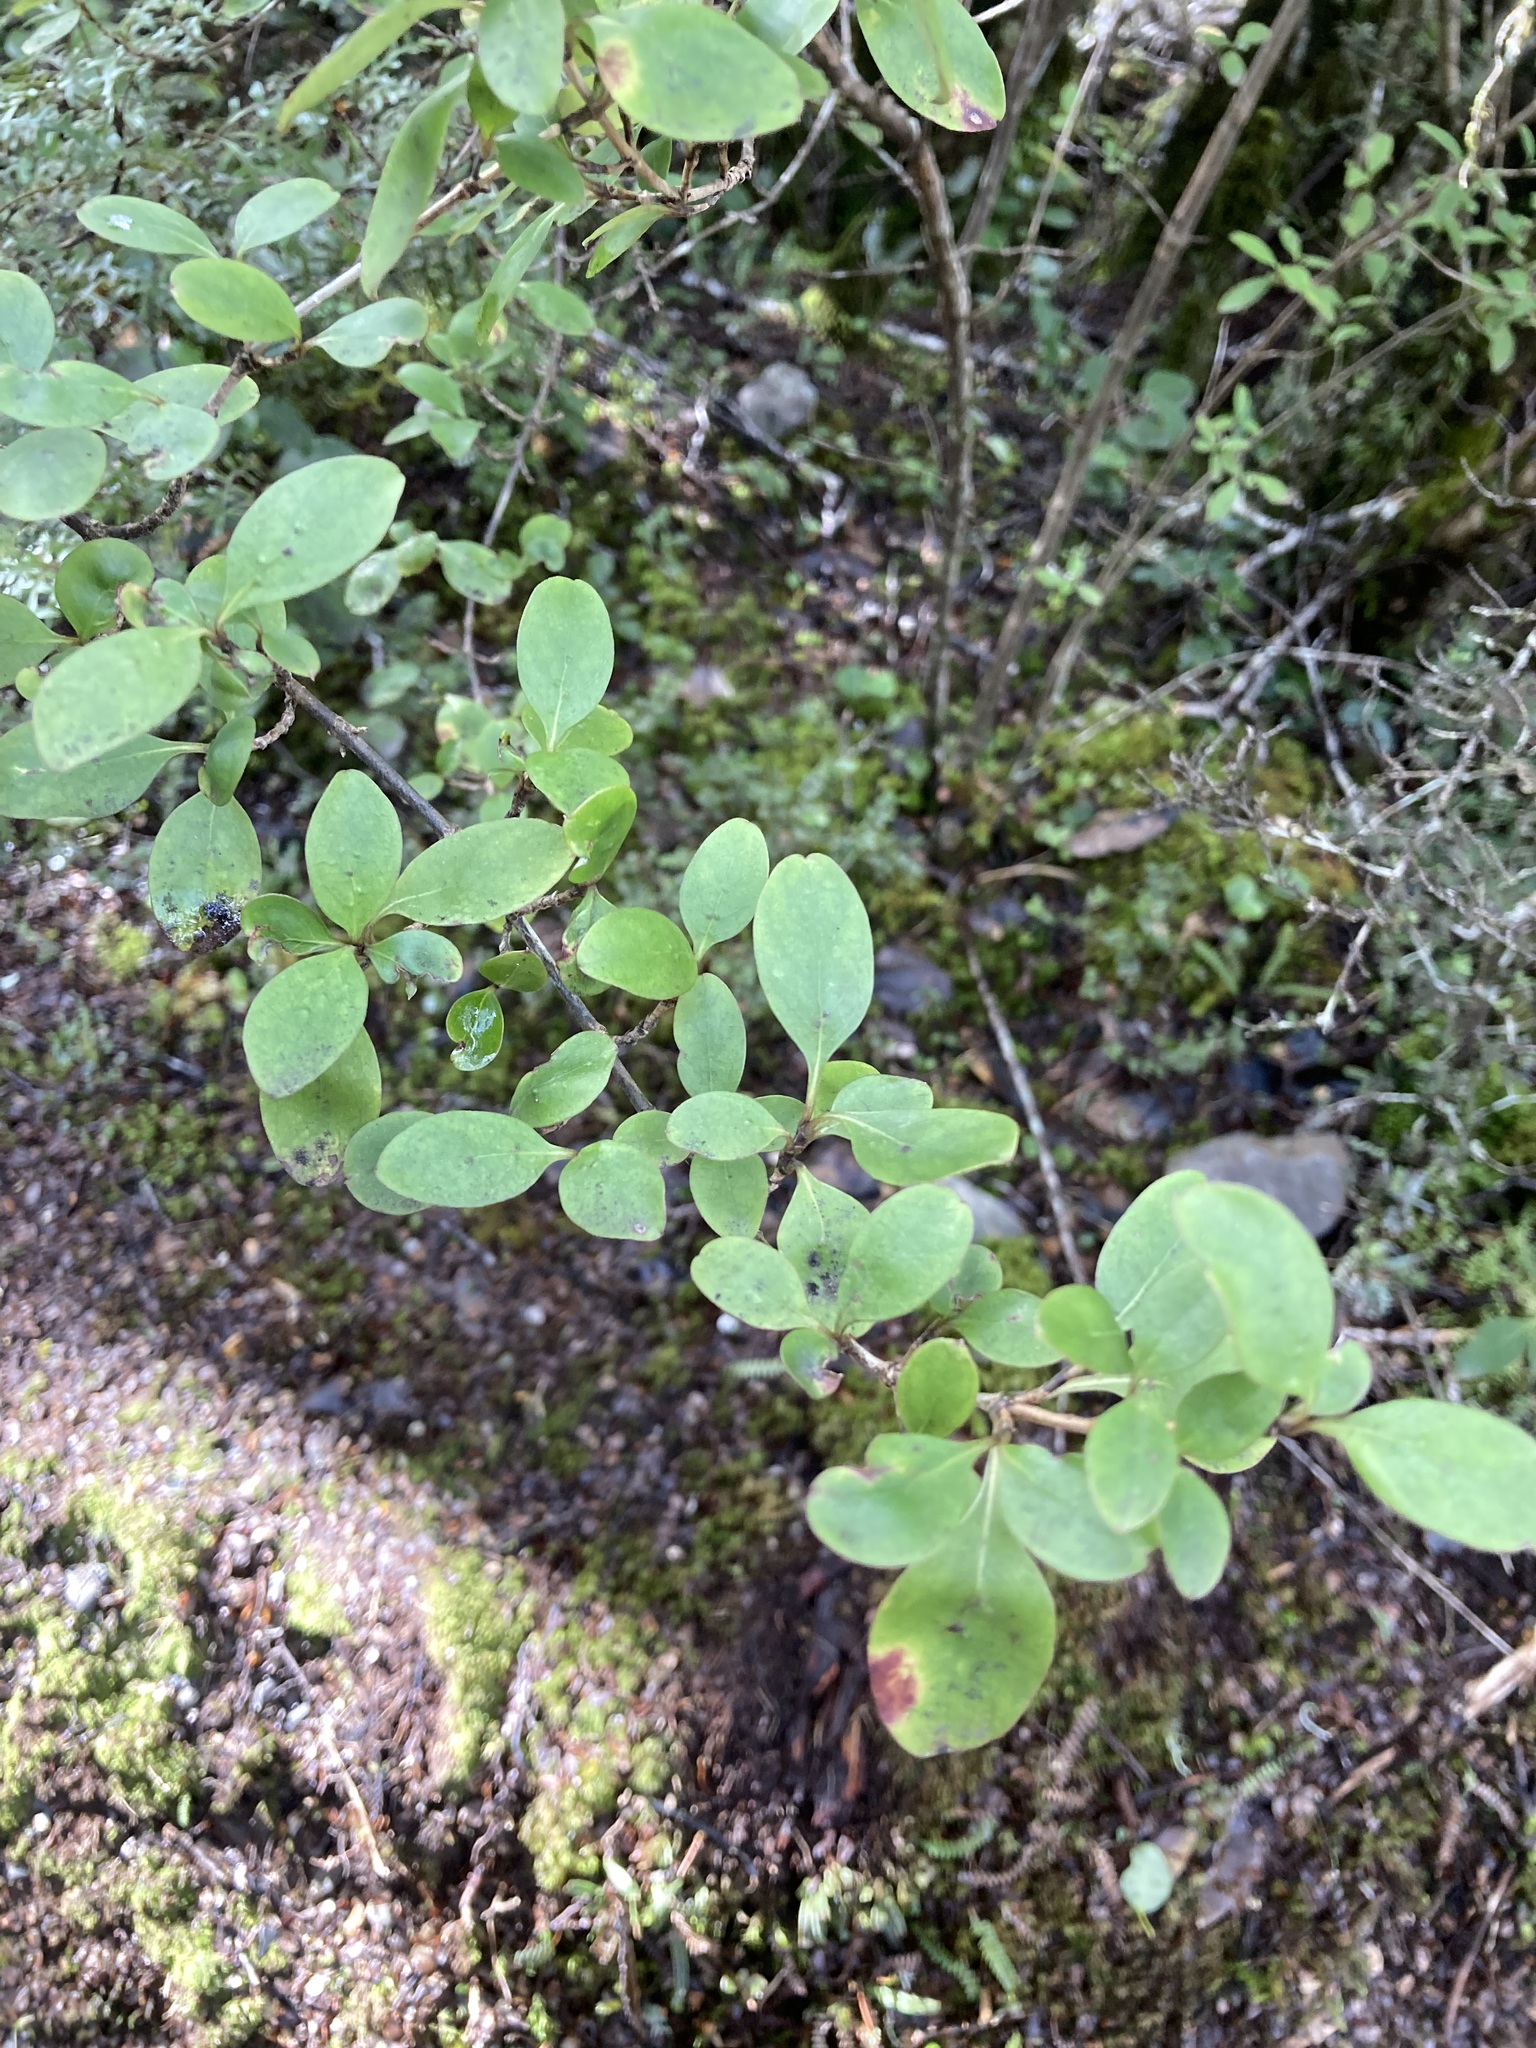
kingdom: Plantae
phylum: Tracheophyta
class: Magnoliopsida
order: Gentianales
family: Rubiaceae
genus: Coprosma
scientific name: Coprosma foetidissima
